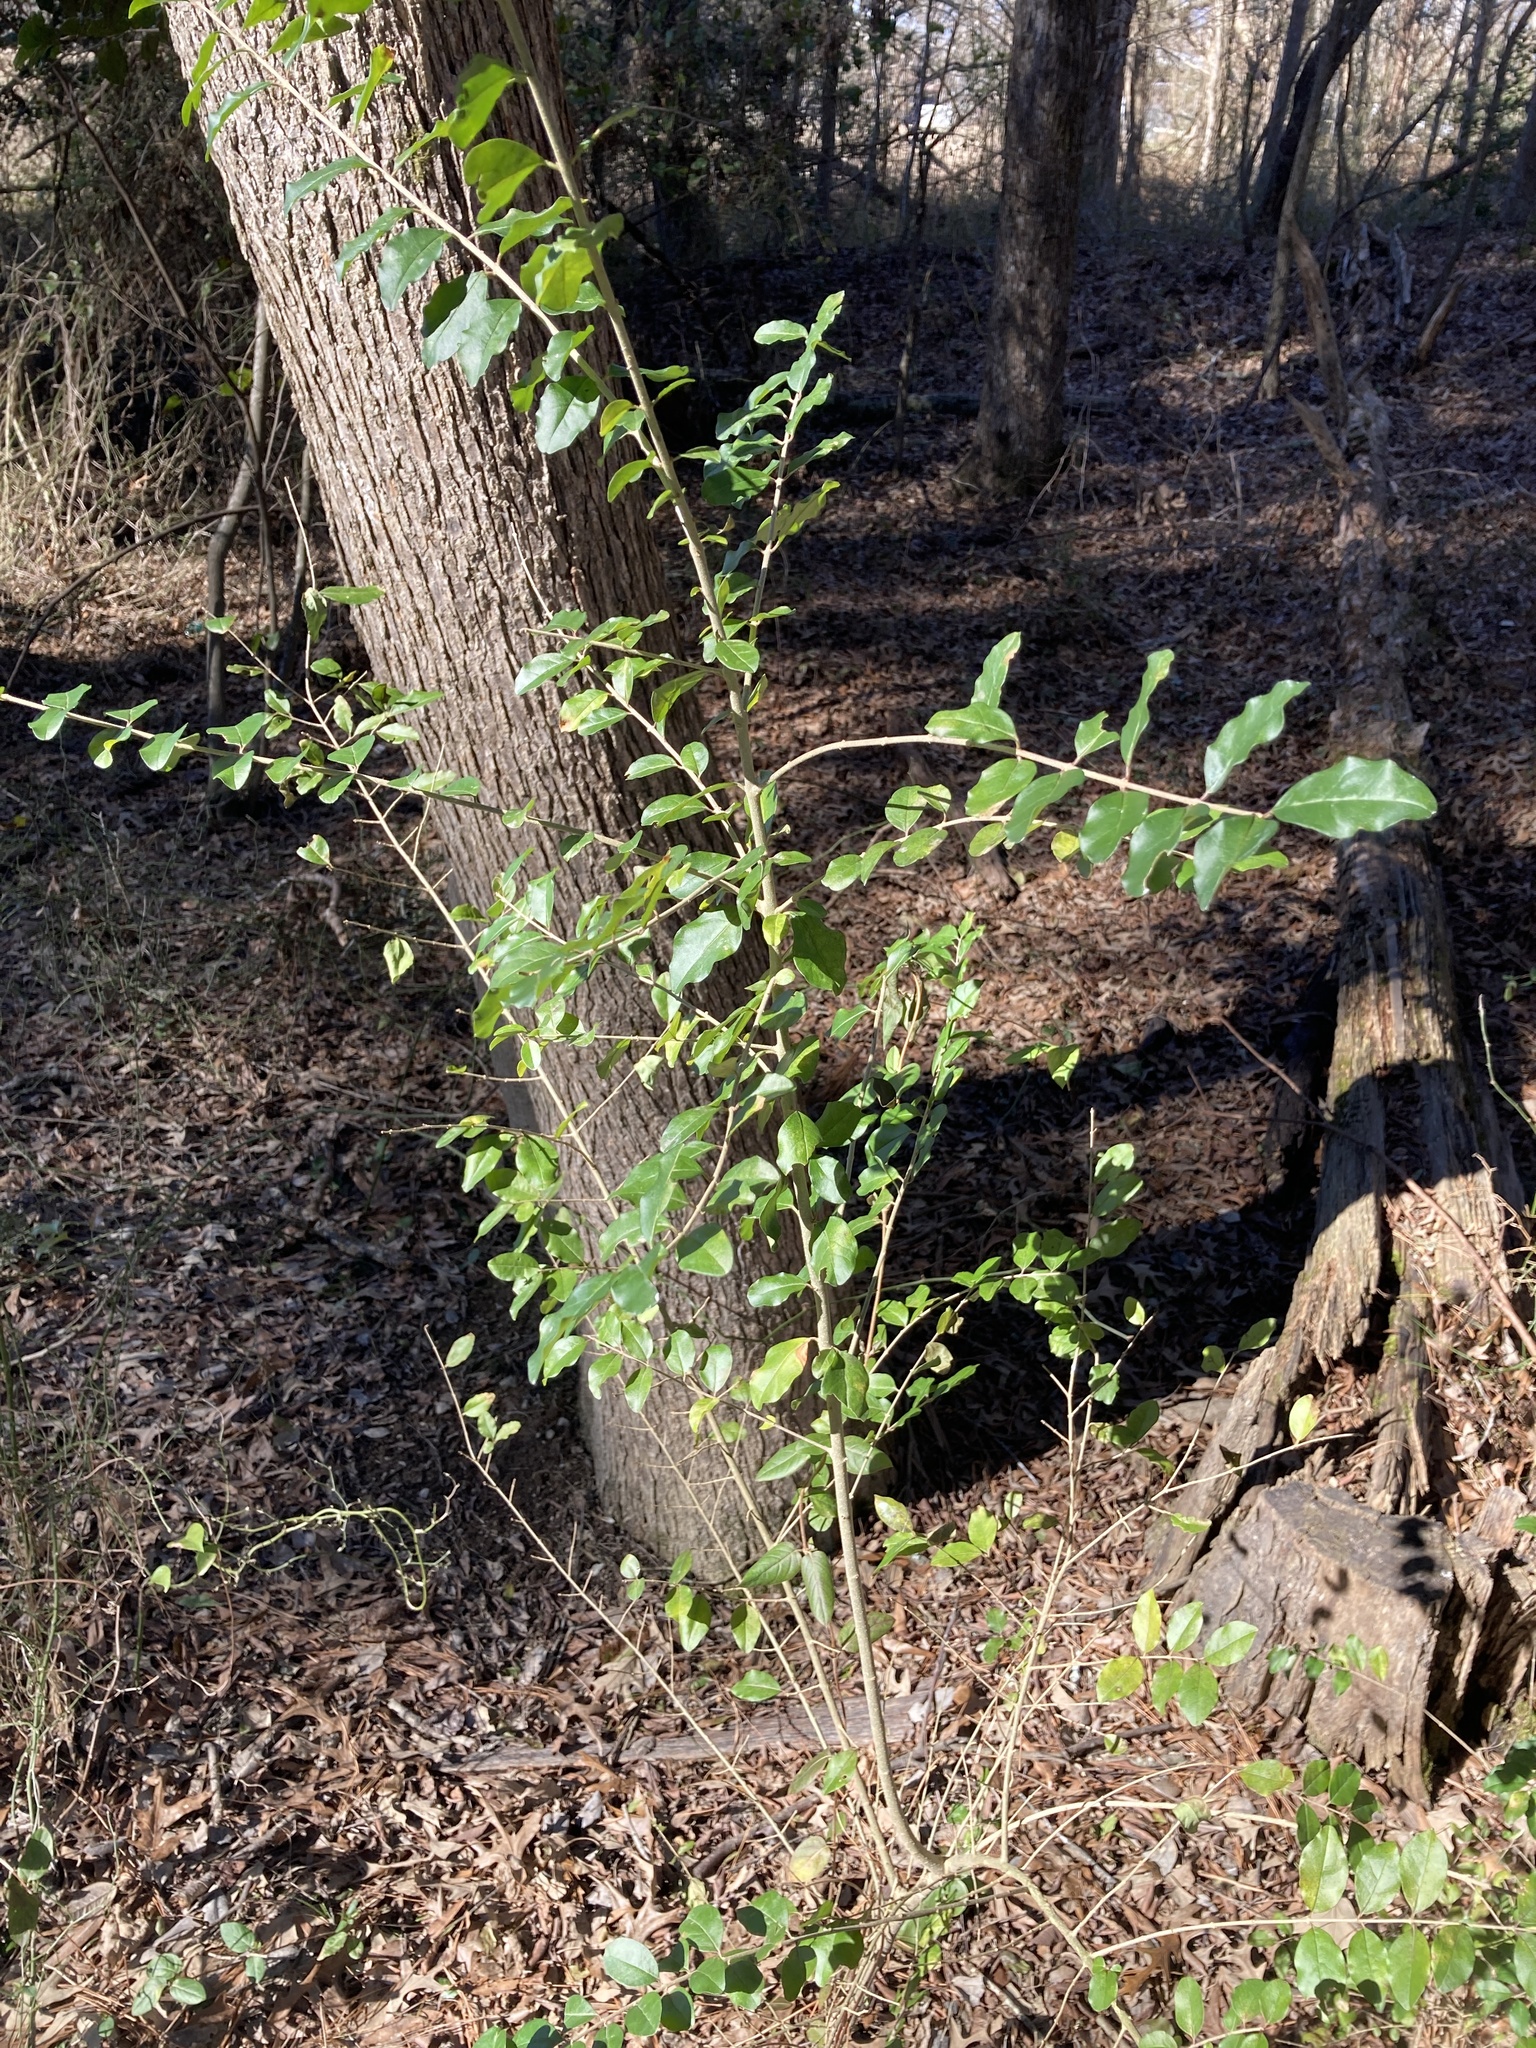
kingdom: Plantae
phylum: Tracheophyta
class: Magnoliopsida
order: Lamiales
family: Oleaceae
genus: Ligustrum
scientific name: Ligustrum sinense
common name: Chinese privet
